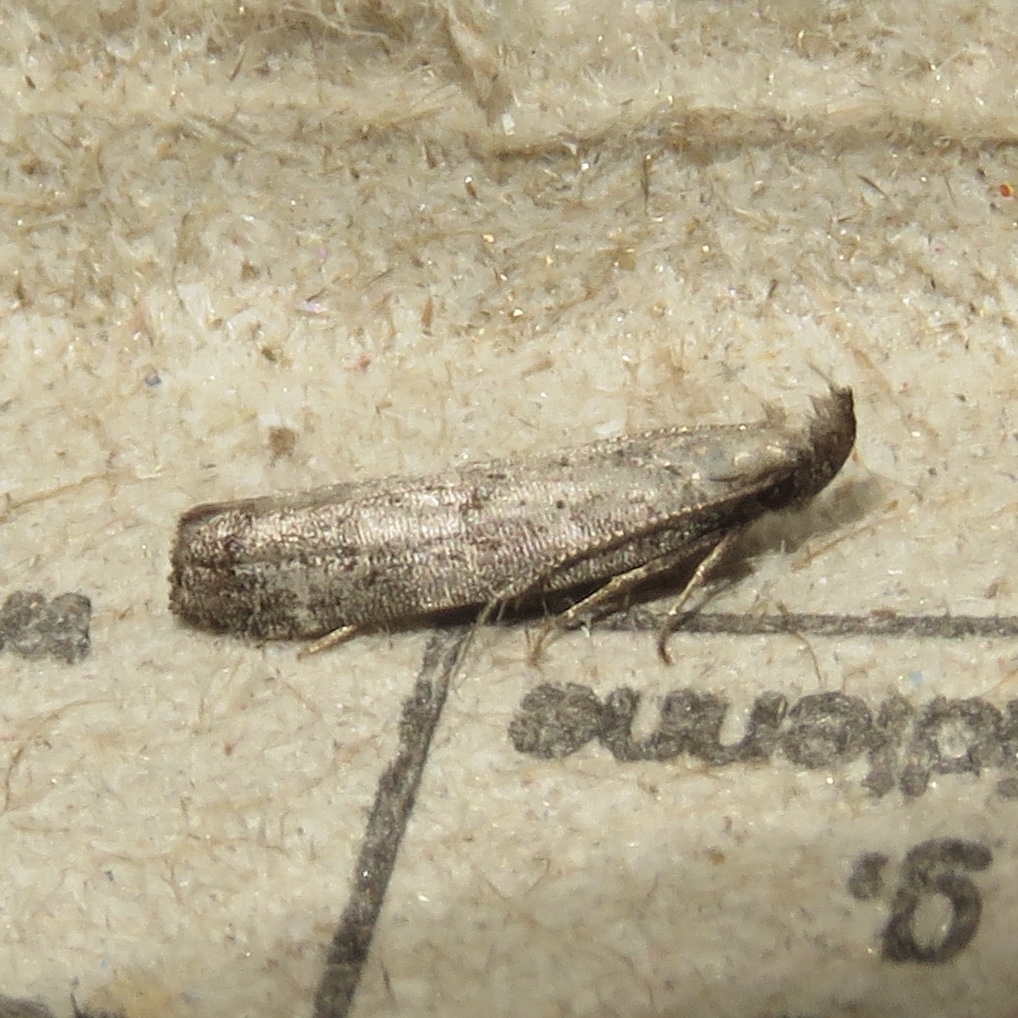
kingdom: Animalia
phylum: Arthropoda
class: Insecta
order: Lepidoptera
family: Gelechiidae
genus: Dichomeris
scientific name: Dichomeris inversella
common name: Inverse dichomeris moth
